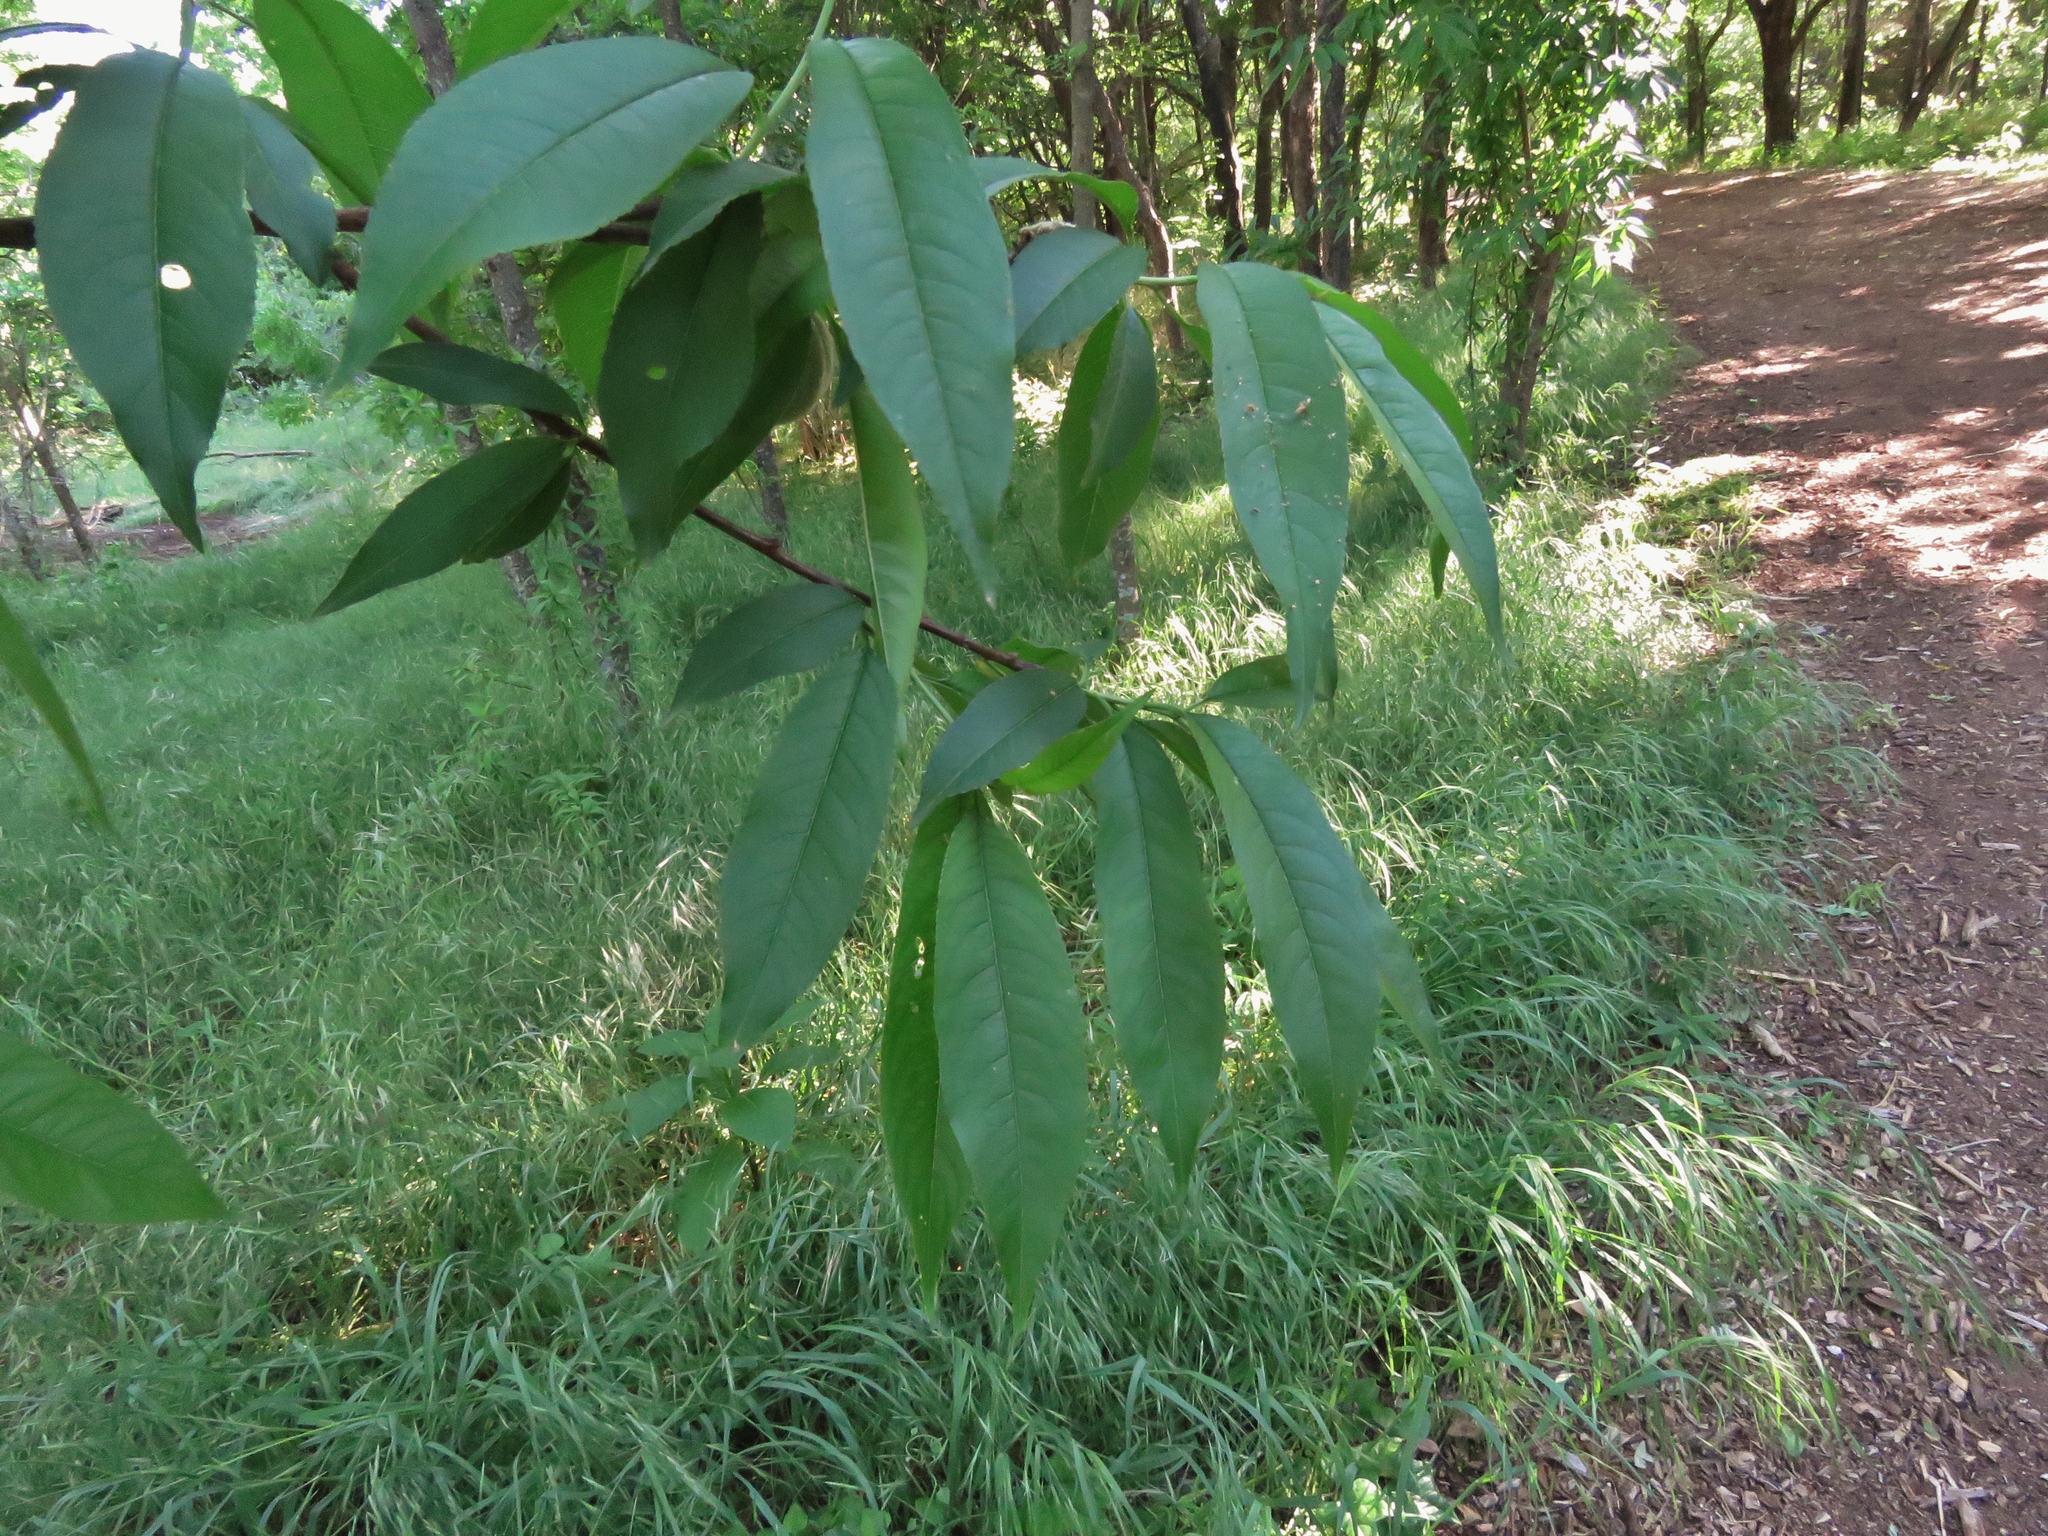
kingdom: Plantae
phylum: Tracheophyta
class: Magnoliopsida
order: Rosales
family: Rosaceae
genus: Prunus
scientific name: Prunus persica
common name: Peach
